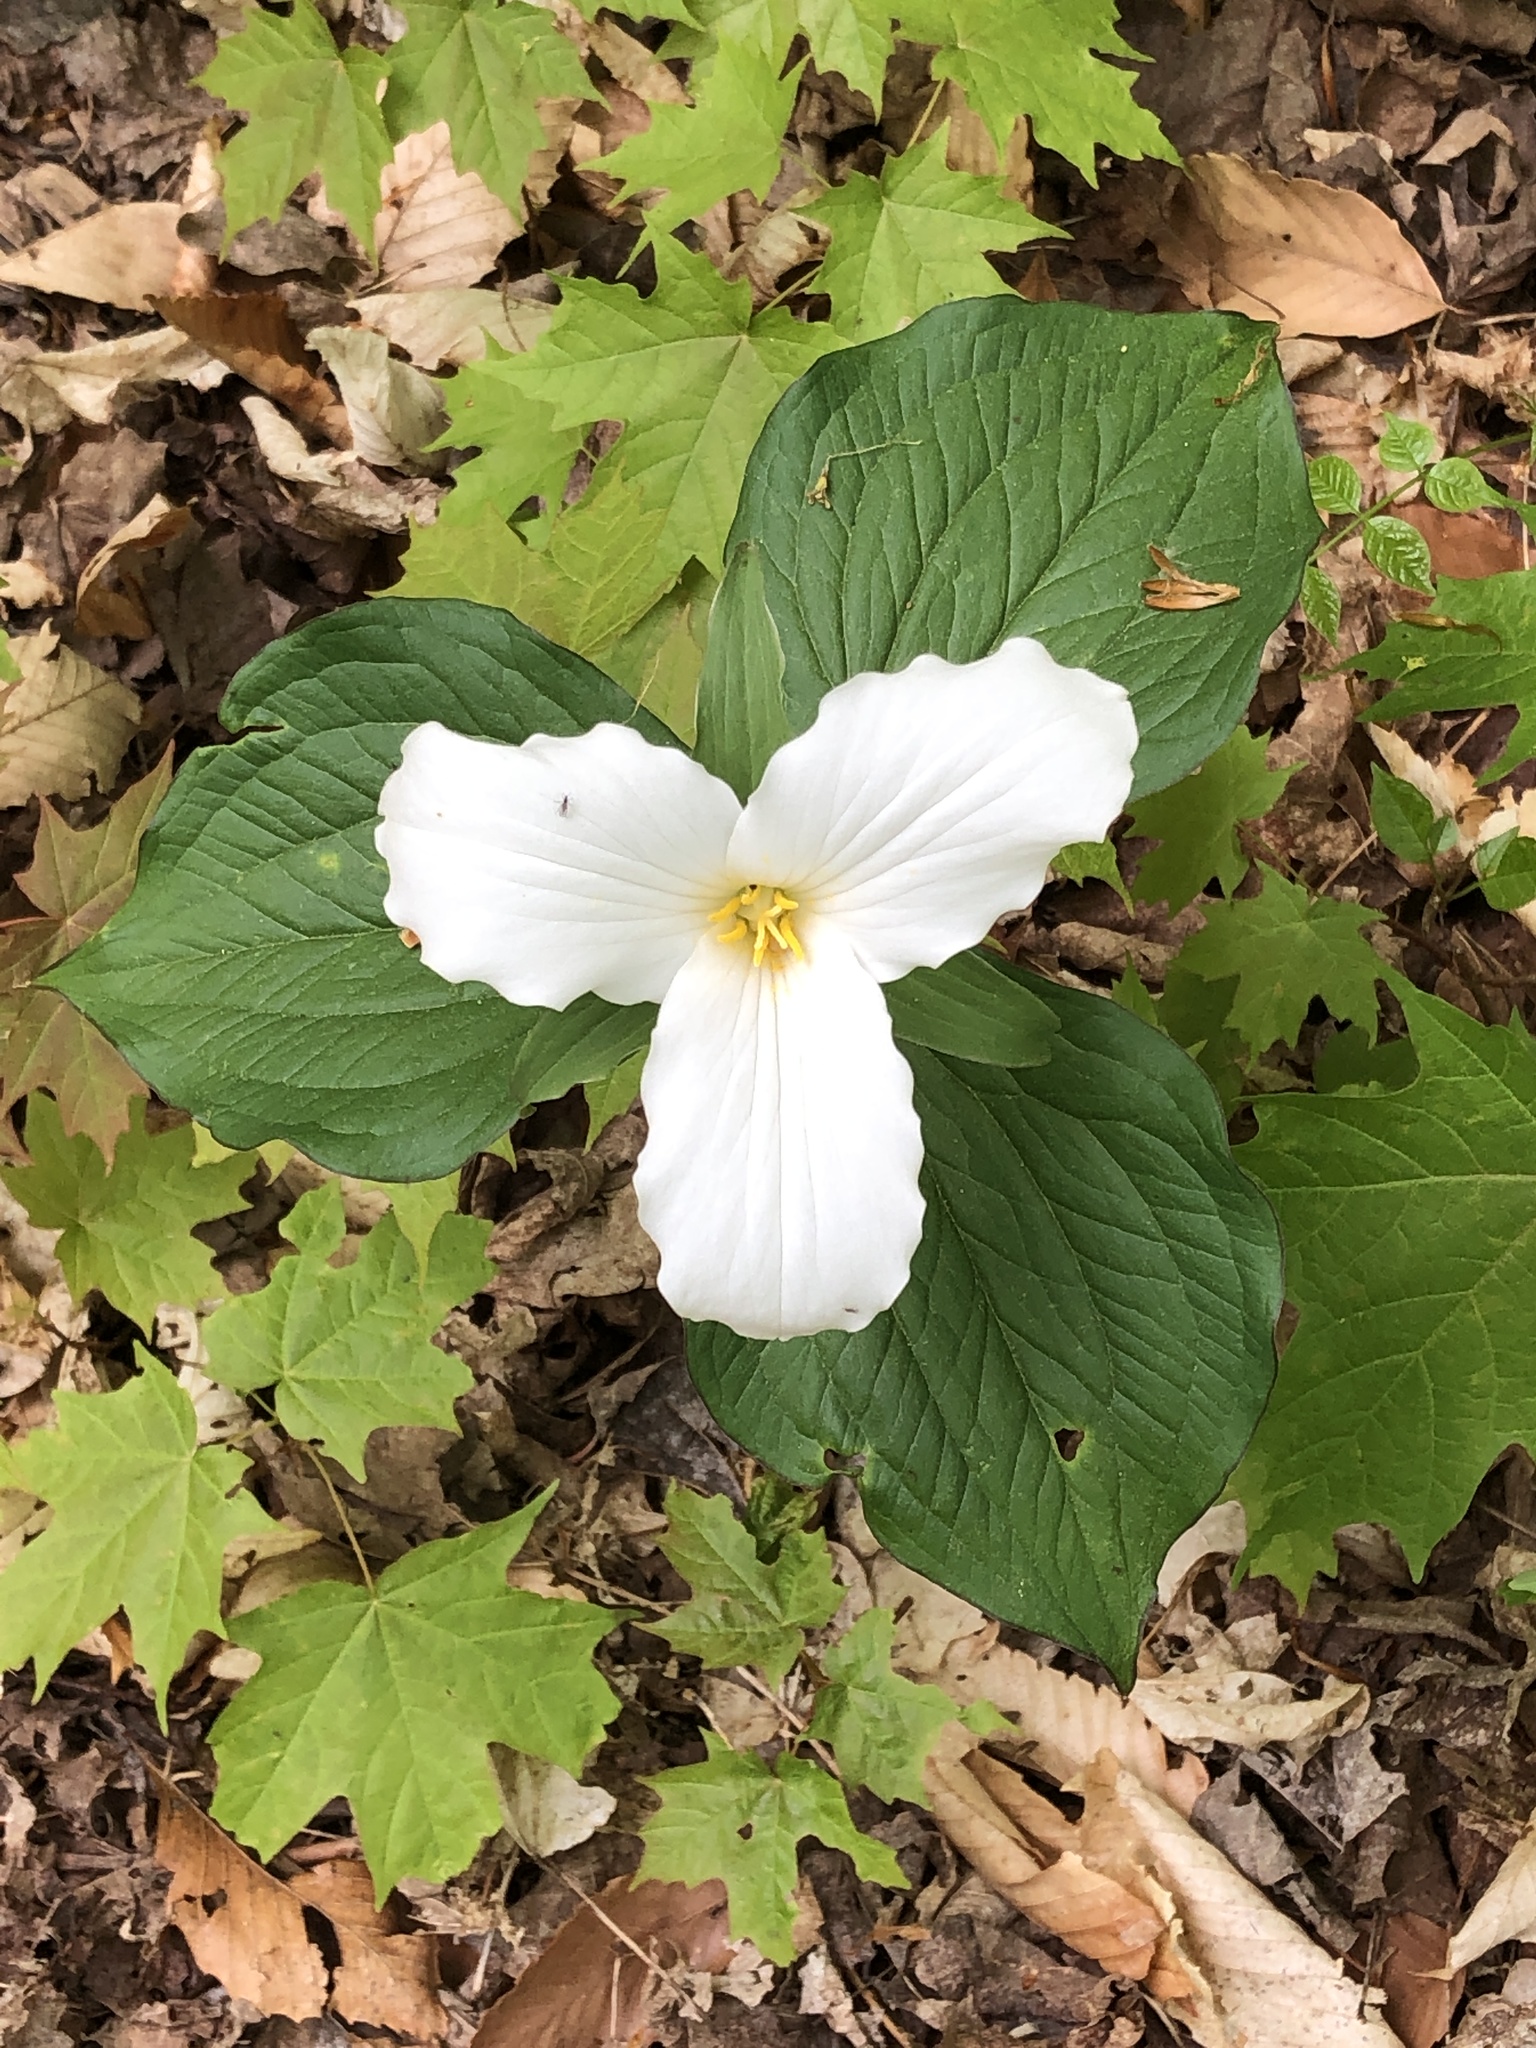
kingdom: Plantae
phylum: Tracheophyta
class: Liliopsida
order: Liliales
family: Melanthiaceae
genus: Trillium
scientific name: Trillium grandiflorum
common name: Great white trillium
